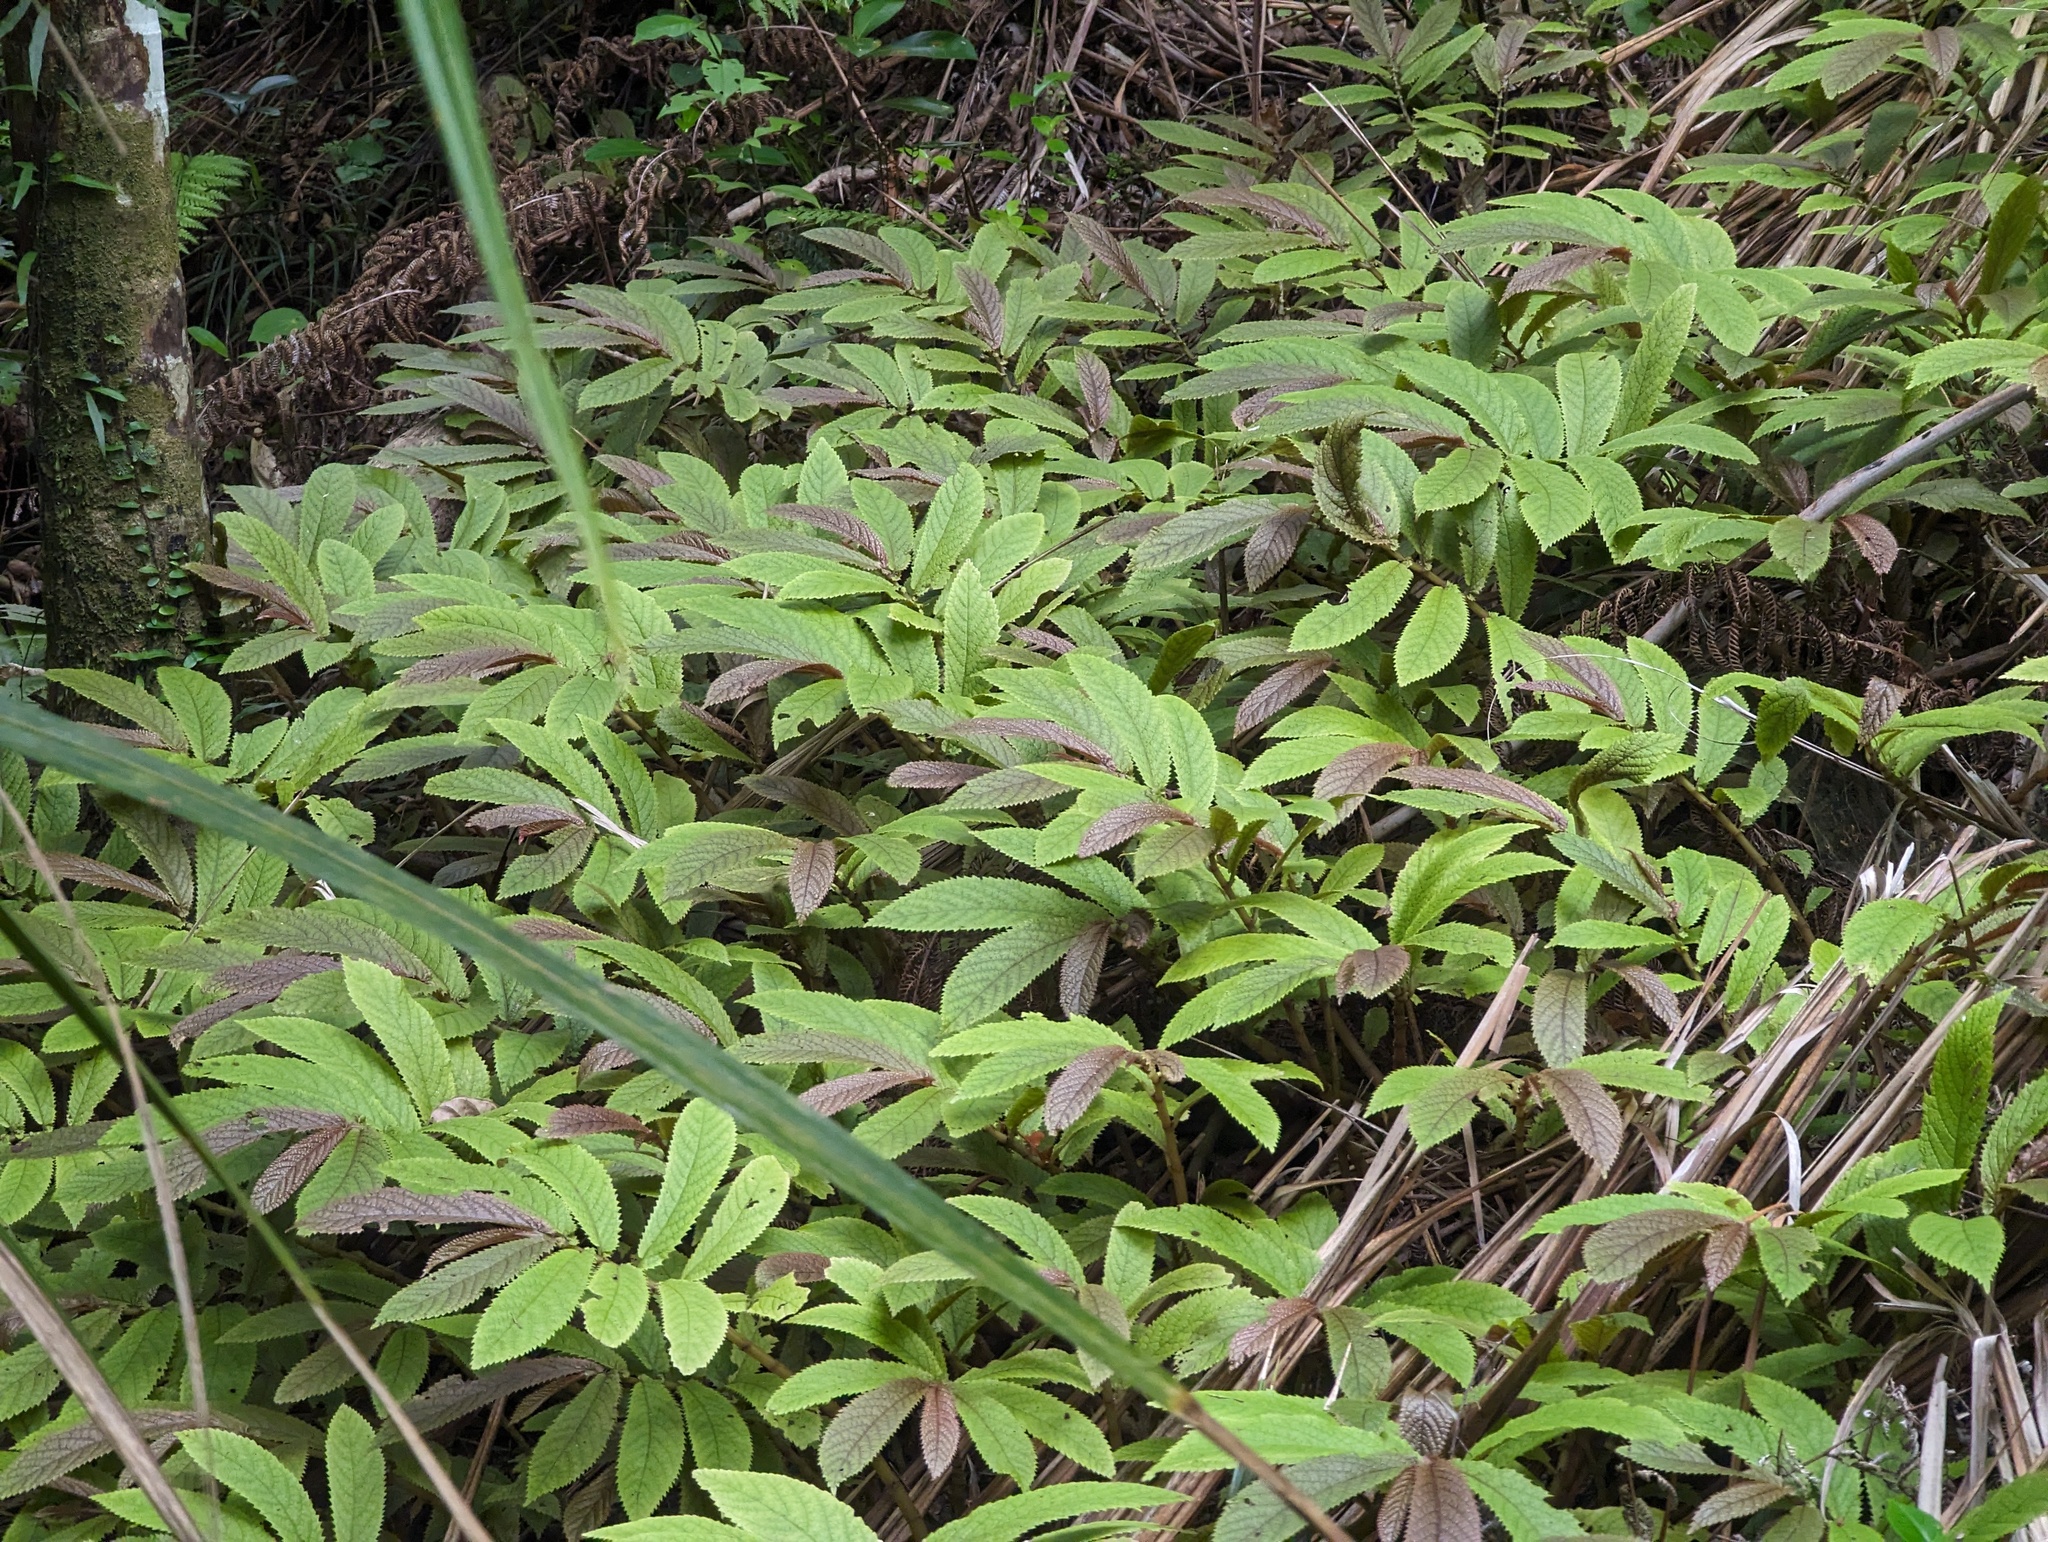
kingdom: Plantae
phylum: Tracheophyta
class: Magnoliopsida
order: Rosales
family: Urticaceae
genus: Elatostema
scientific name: Elatostema rugosum
